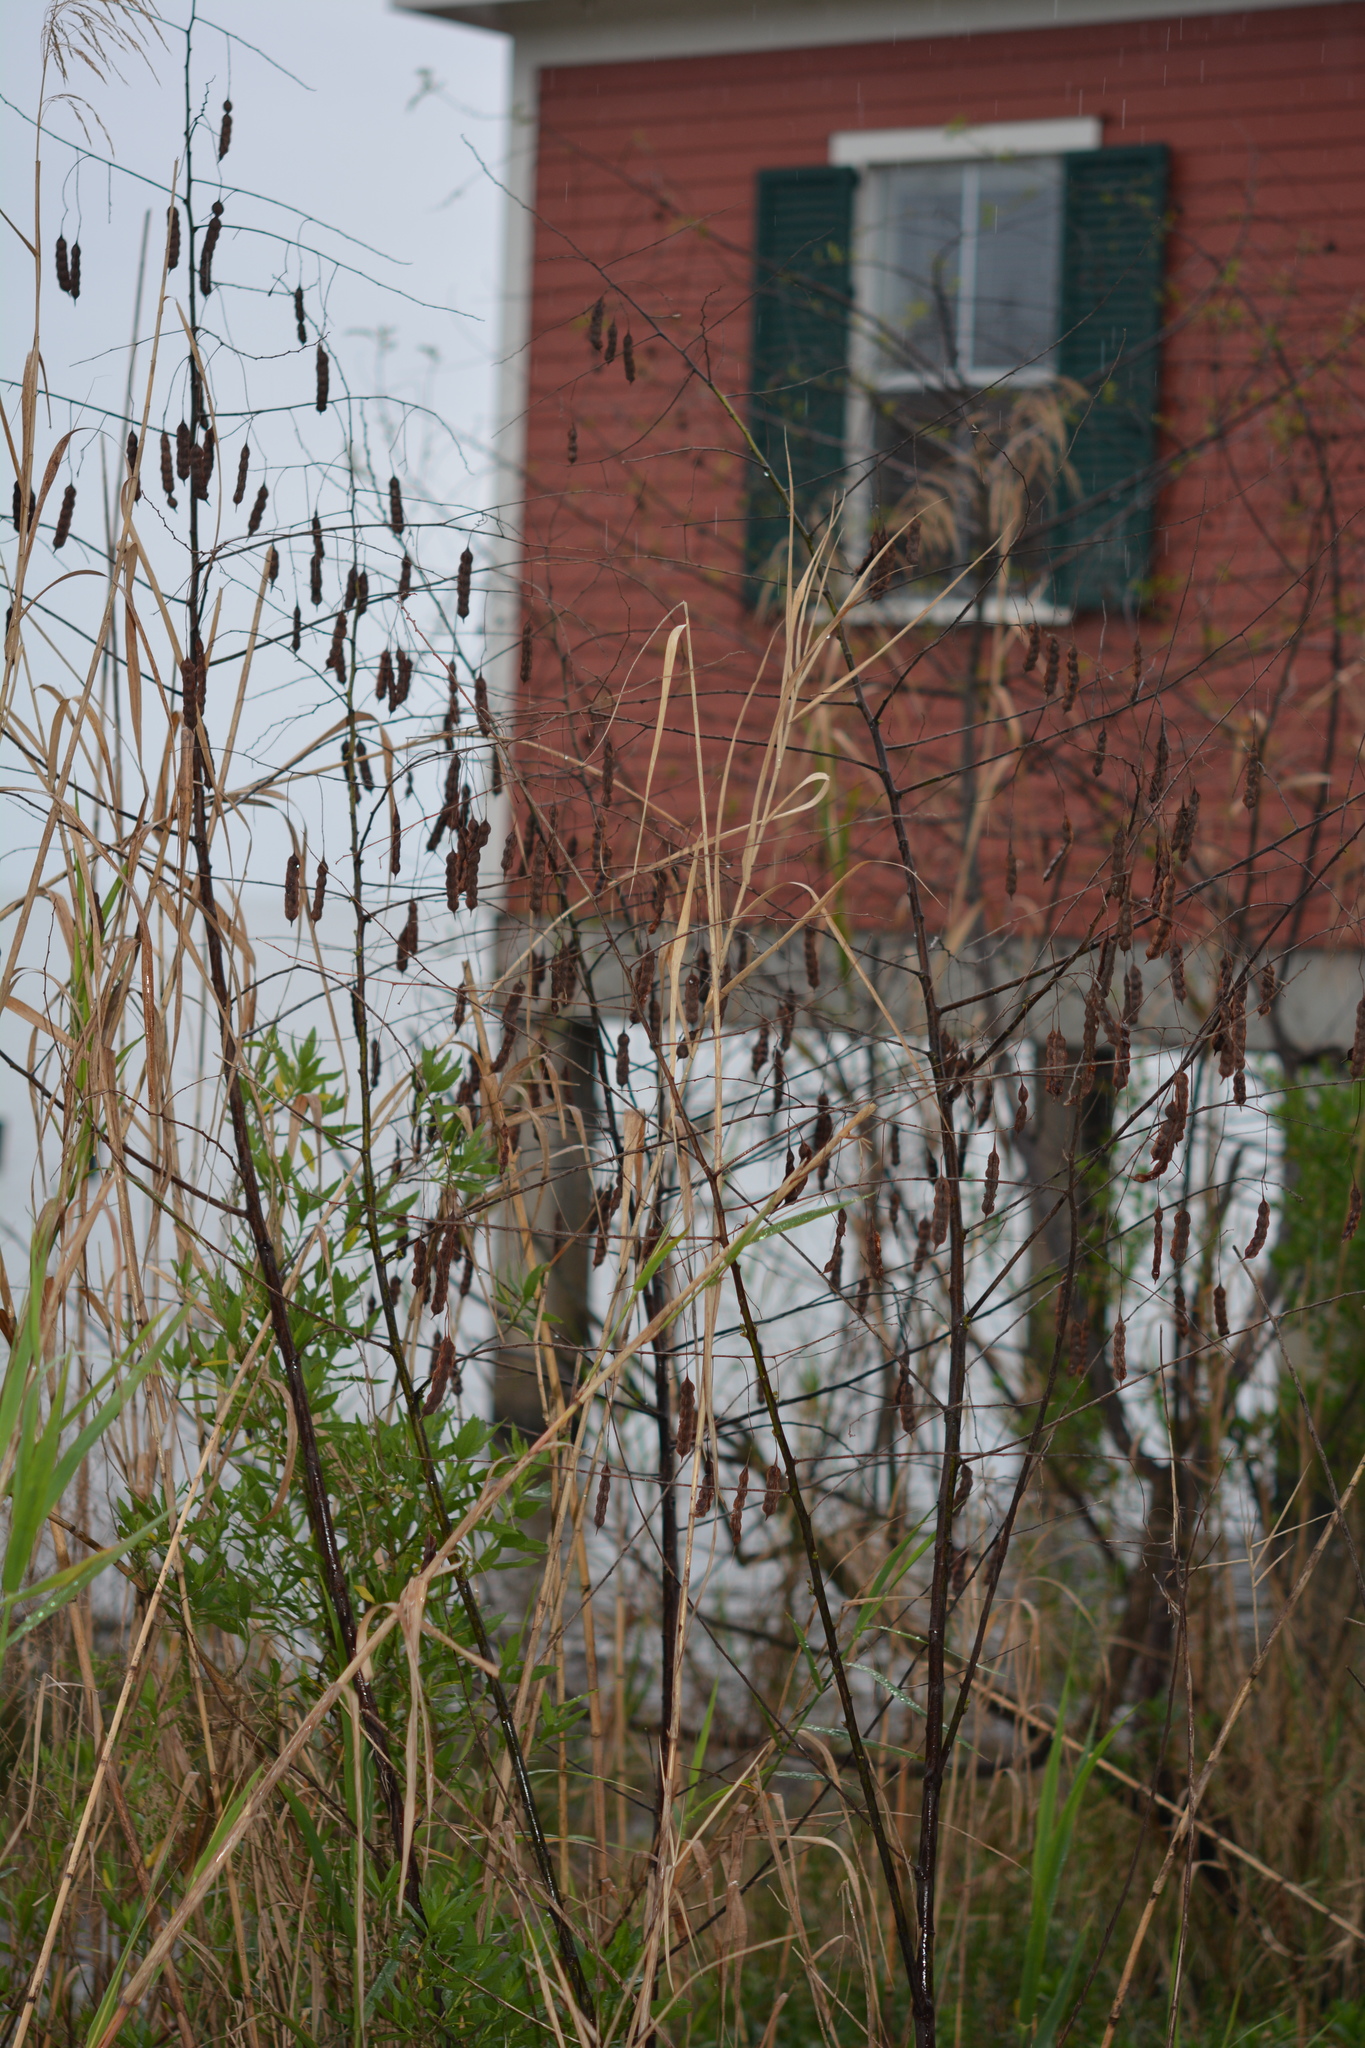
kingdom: Plantae
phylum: Tracheophyta
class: Magnoliopsida
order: Fabales
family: Fabaceae
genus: Sesbania
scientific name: Sesbania drummondii
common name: Poison-bean
